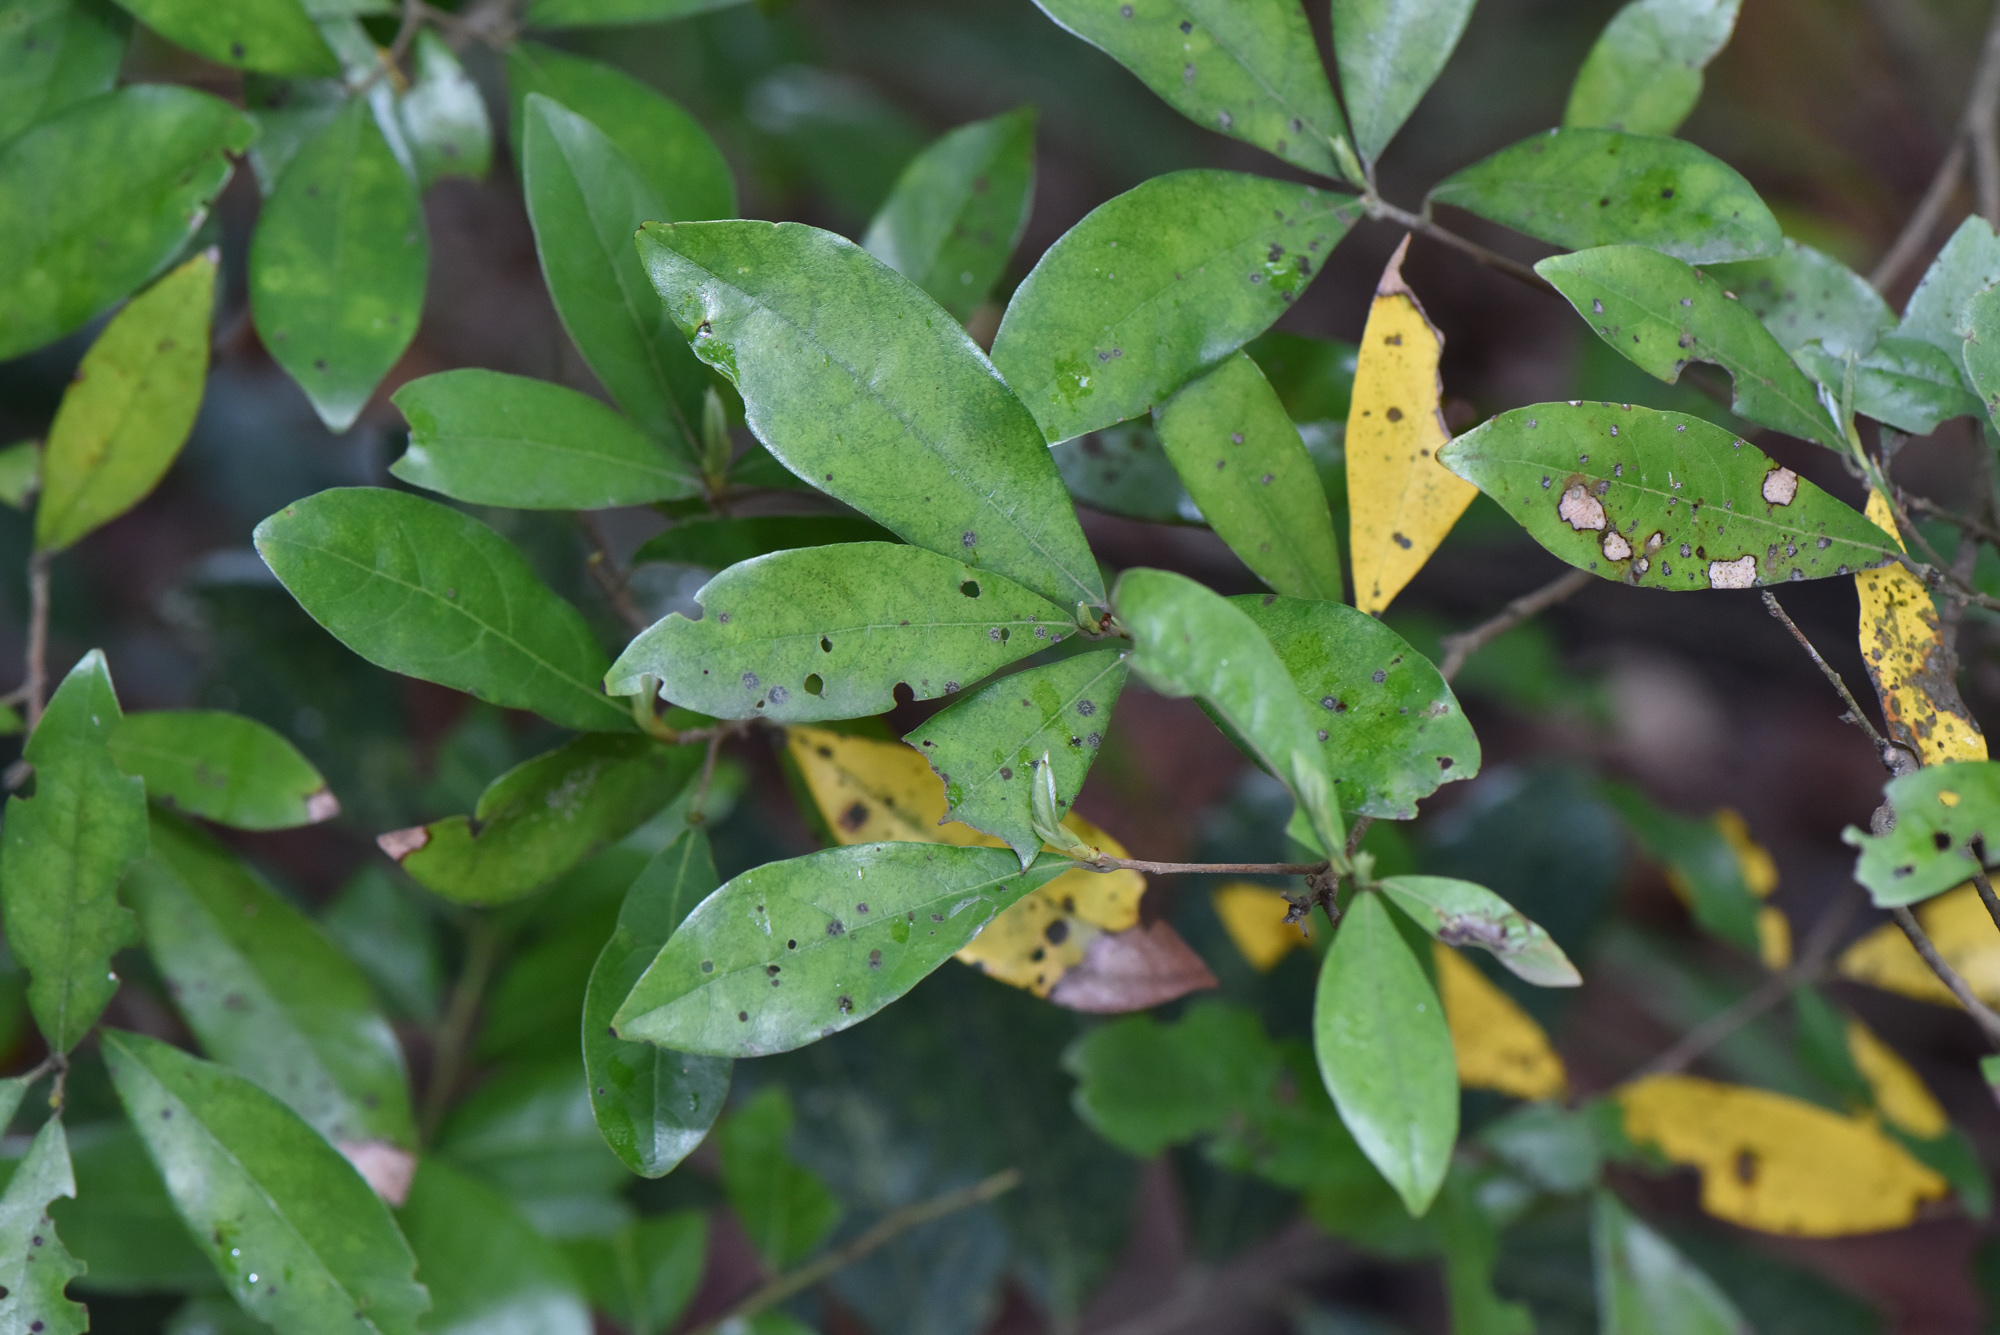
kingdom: Plantae
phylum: Tracheophyta
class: Magnoliopsida
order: Laurales
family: Lauraceae
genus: Litsea
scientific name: Litsea hypophaea
